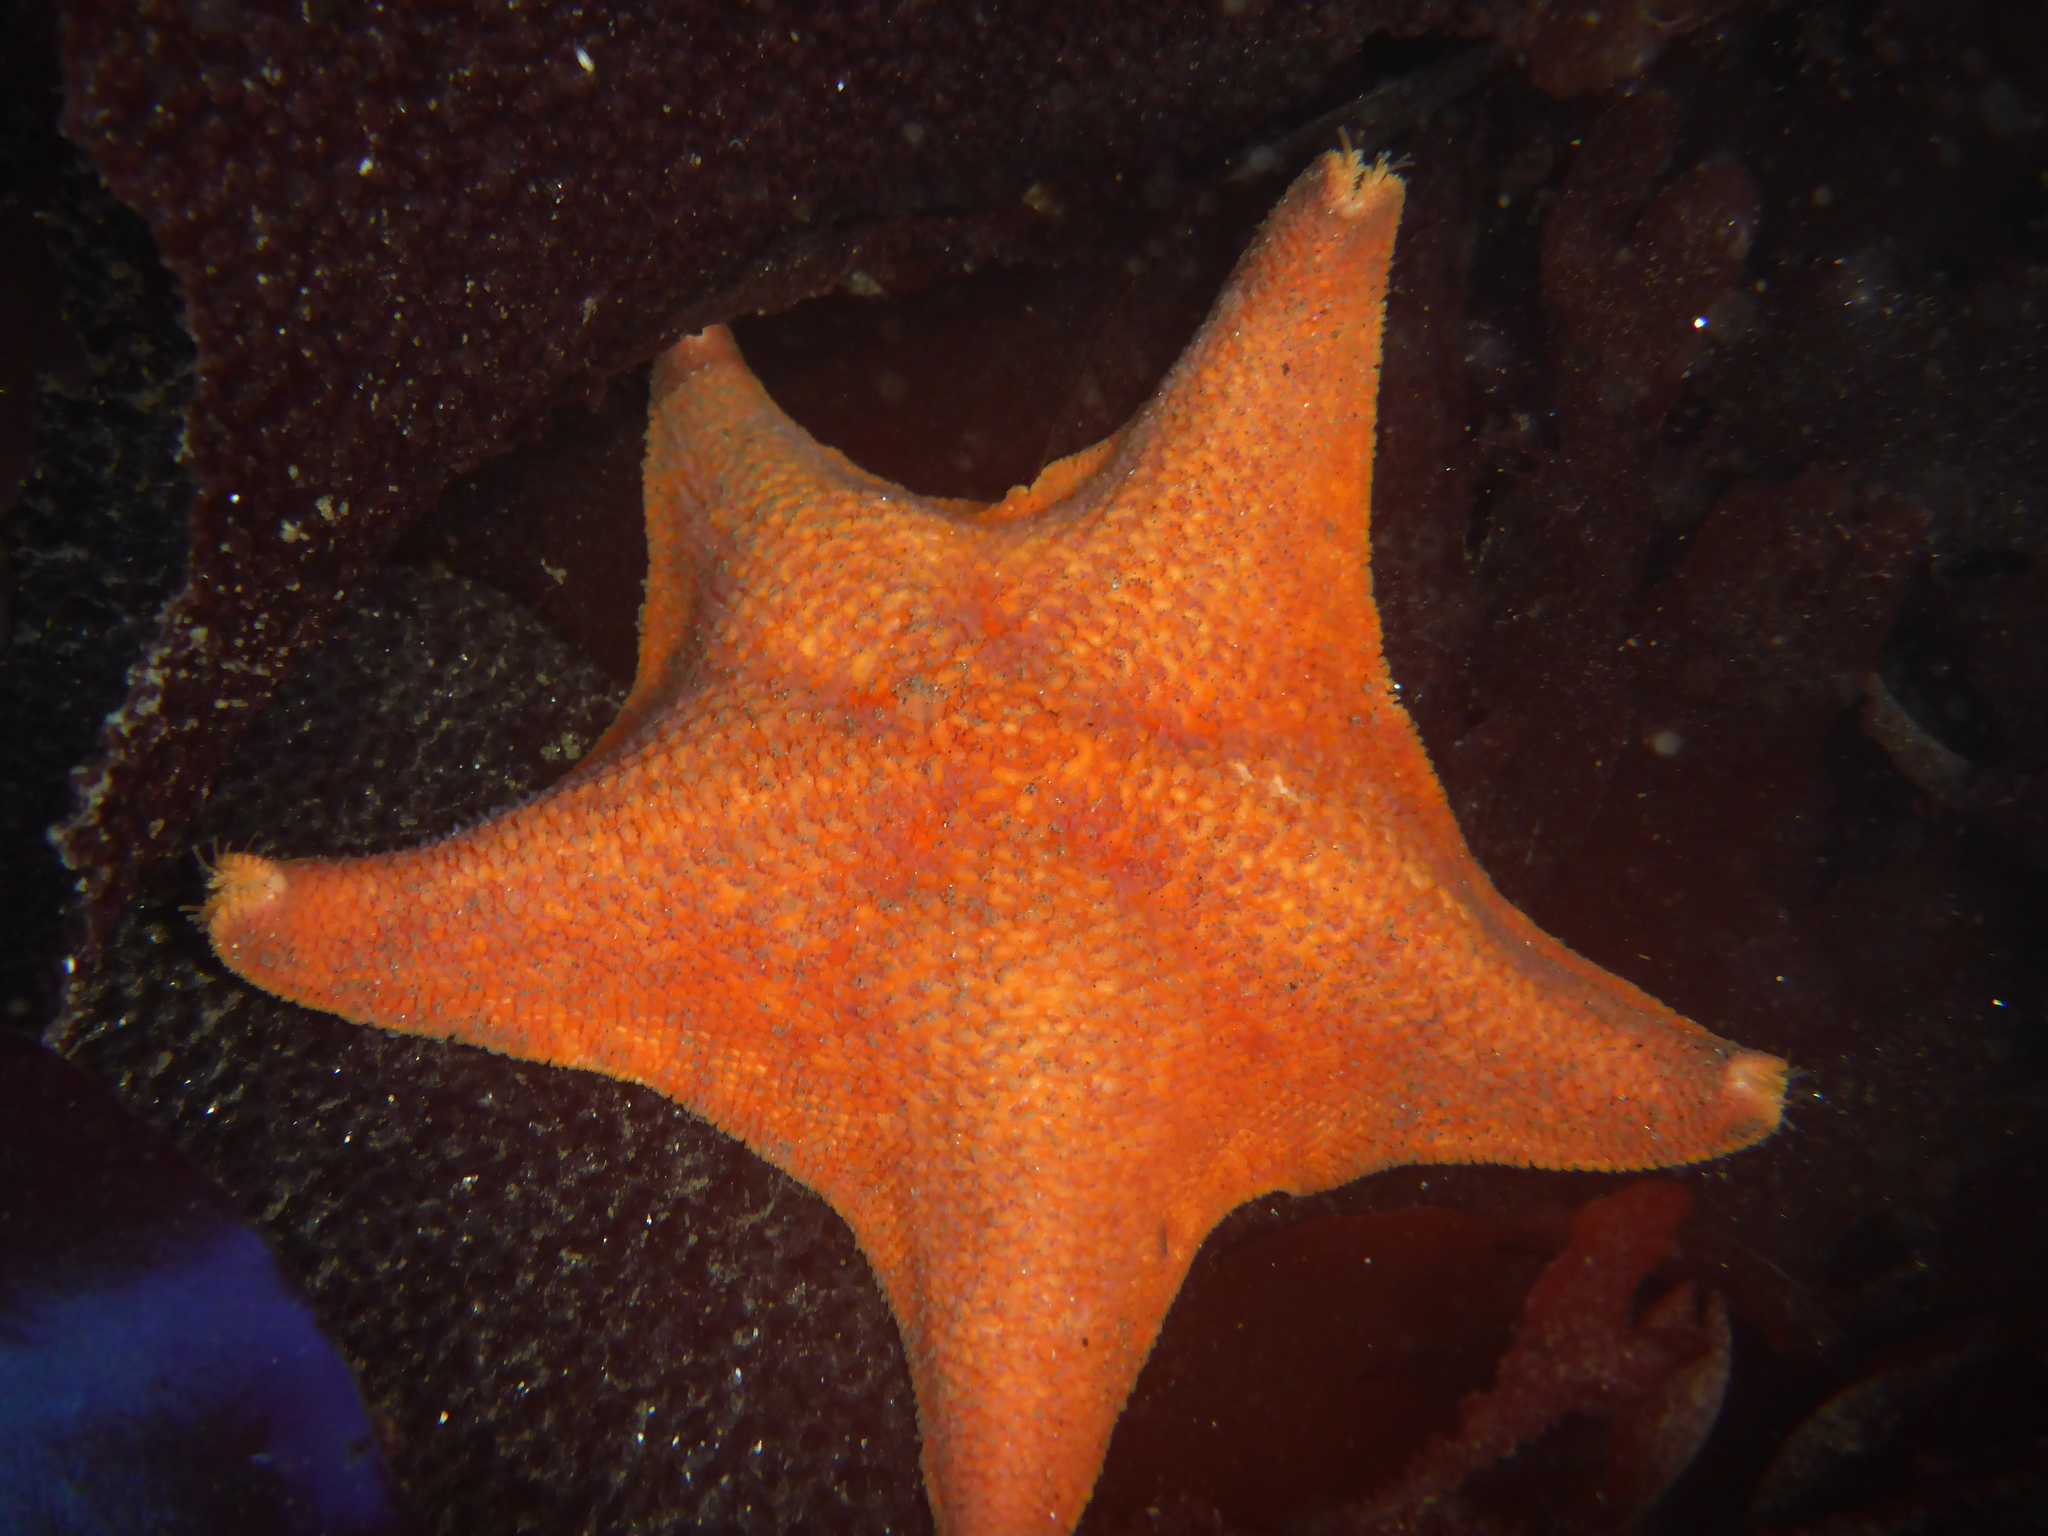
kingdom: Animalia
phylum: Echinodermata
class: Asteroidea
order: Valvatida
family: Asterinidae
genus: Patiria
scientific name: Patiria miniata
